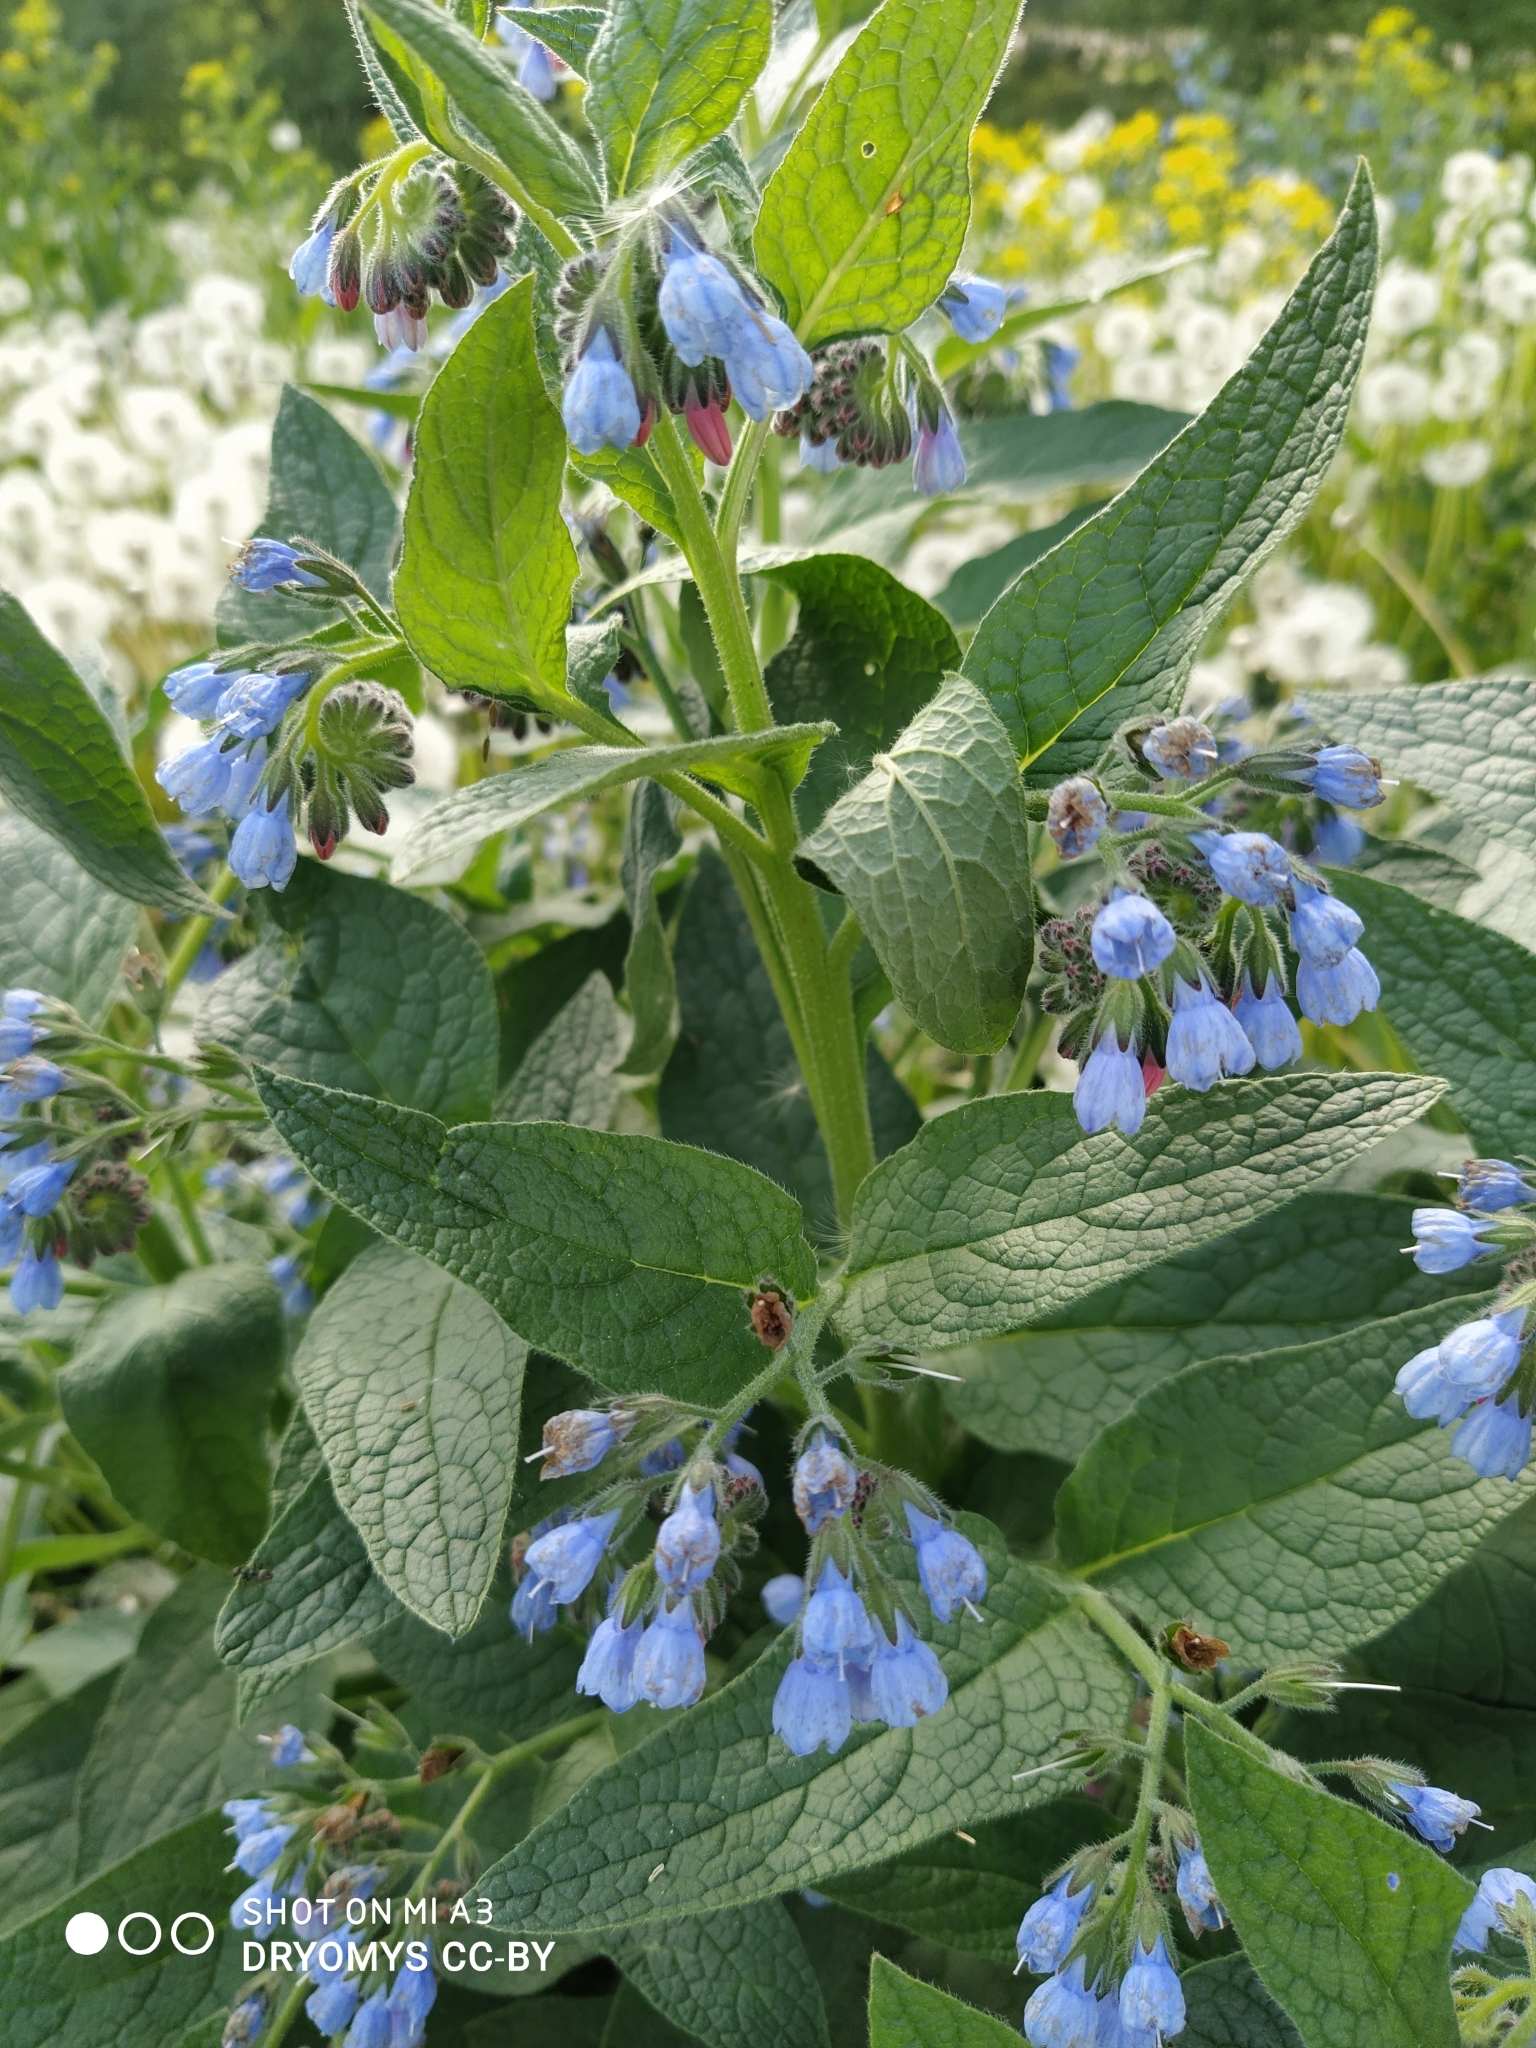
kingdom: Plantae
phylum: Tracheophyta
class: Magnoliopsida
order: Boraginales
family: Boraginaceae
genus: Symphytum
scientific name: Symphytum caucasicum
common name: Caucasian comfrey
